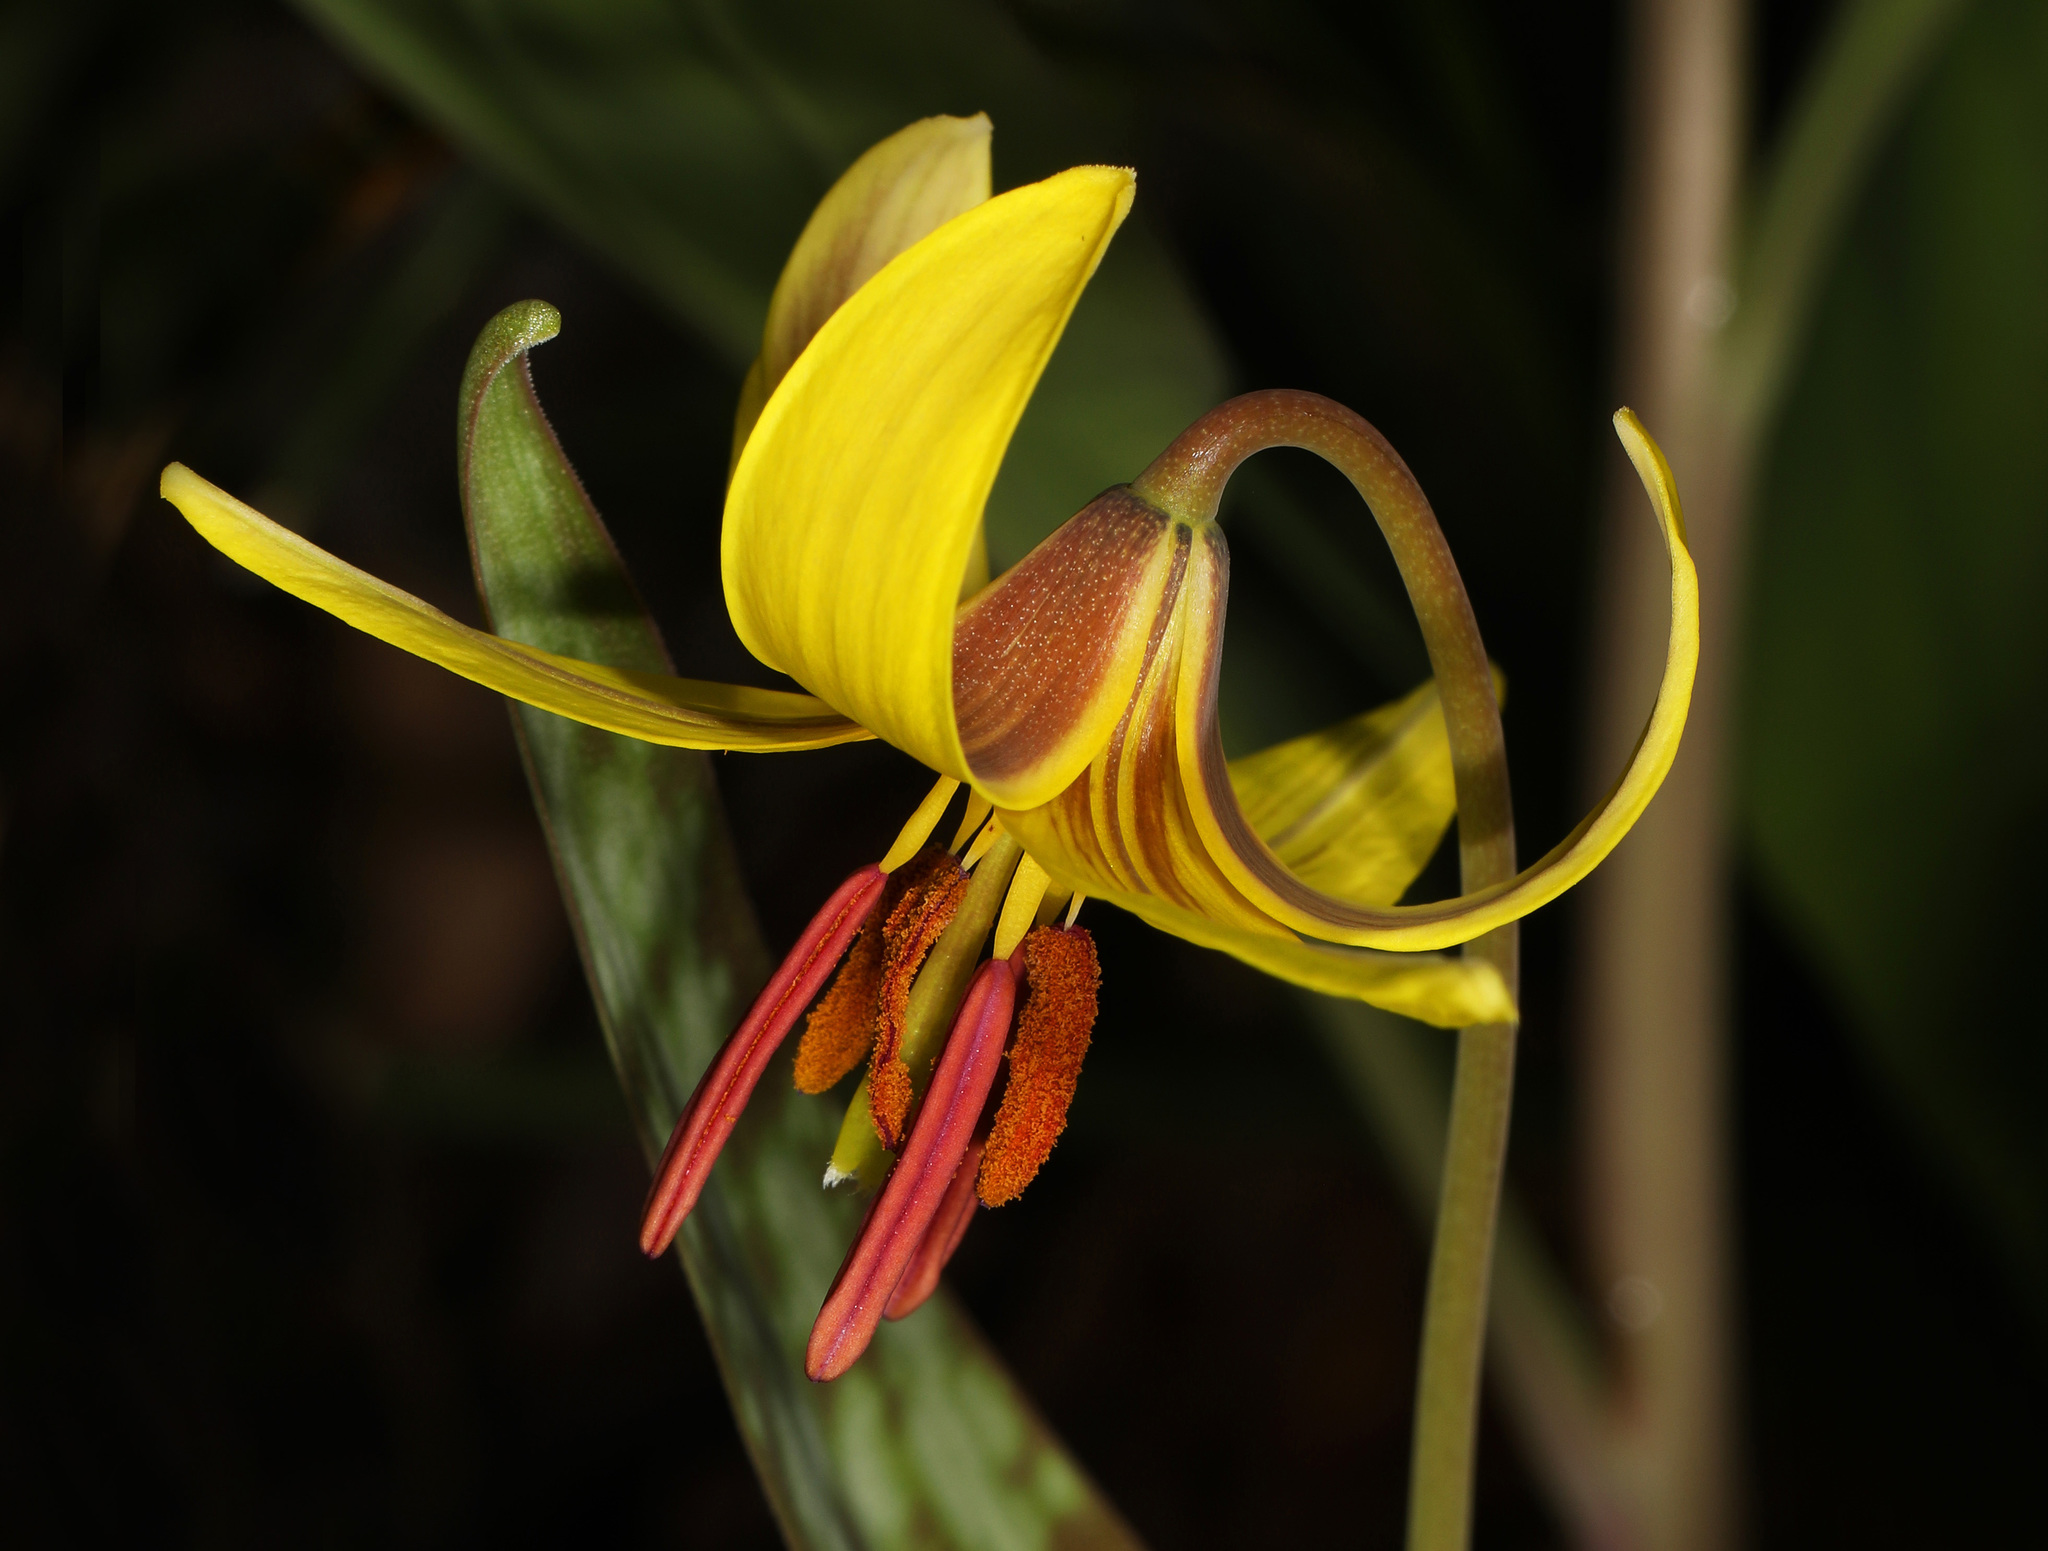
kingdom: Plantae
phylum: Tracheophyta
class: Liliopsida
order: Liliales
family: Liliaceae
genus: Erythronium
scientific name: Erythronium americanum
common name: Yellow adder's-tongue
